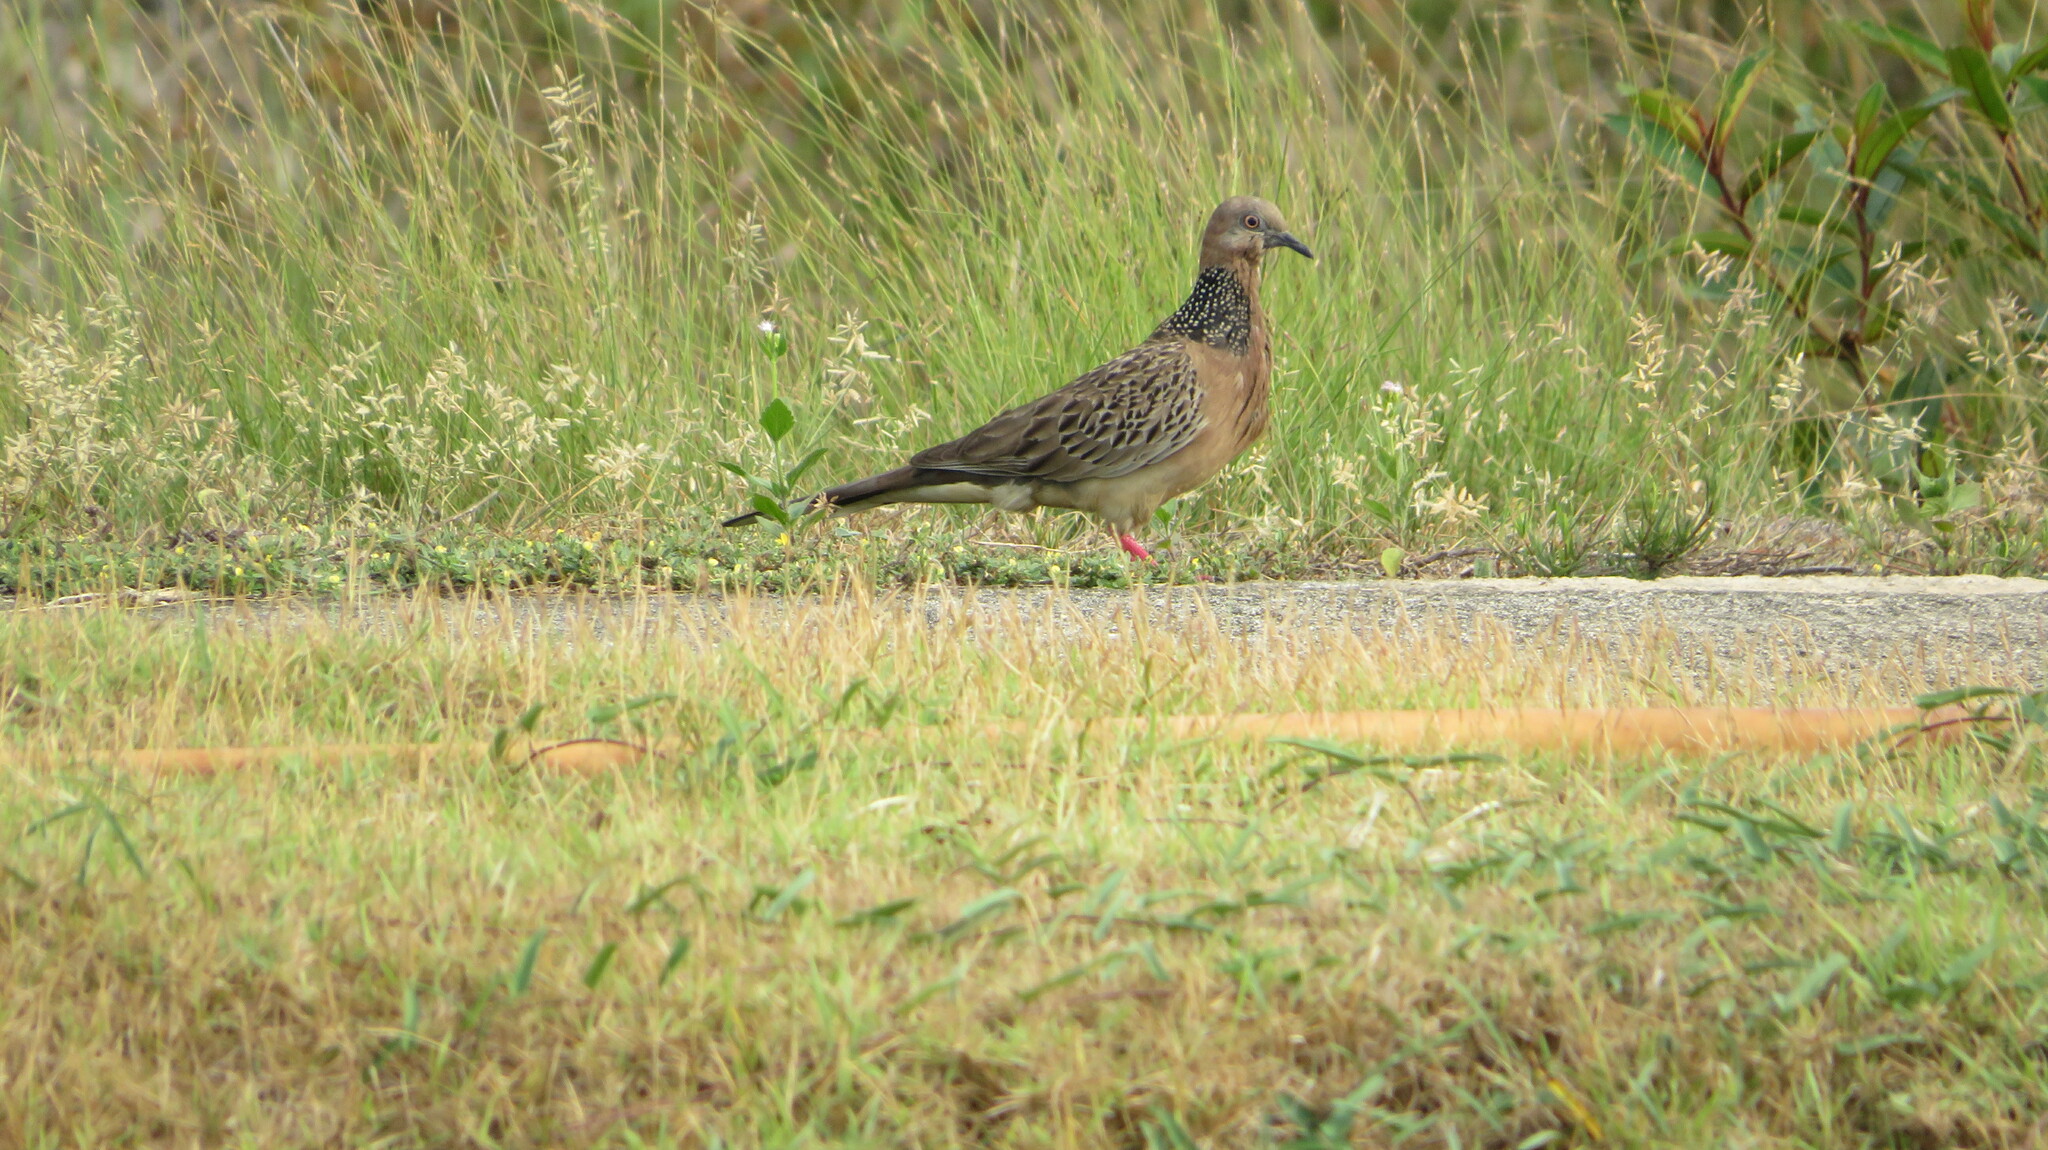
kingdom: Animalia
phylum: Chordata
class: Aves
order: Columbiformes
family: Columbidae
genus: Spilopelia
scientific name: Spilopelia chinensis
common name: Spotted dove
